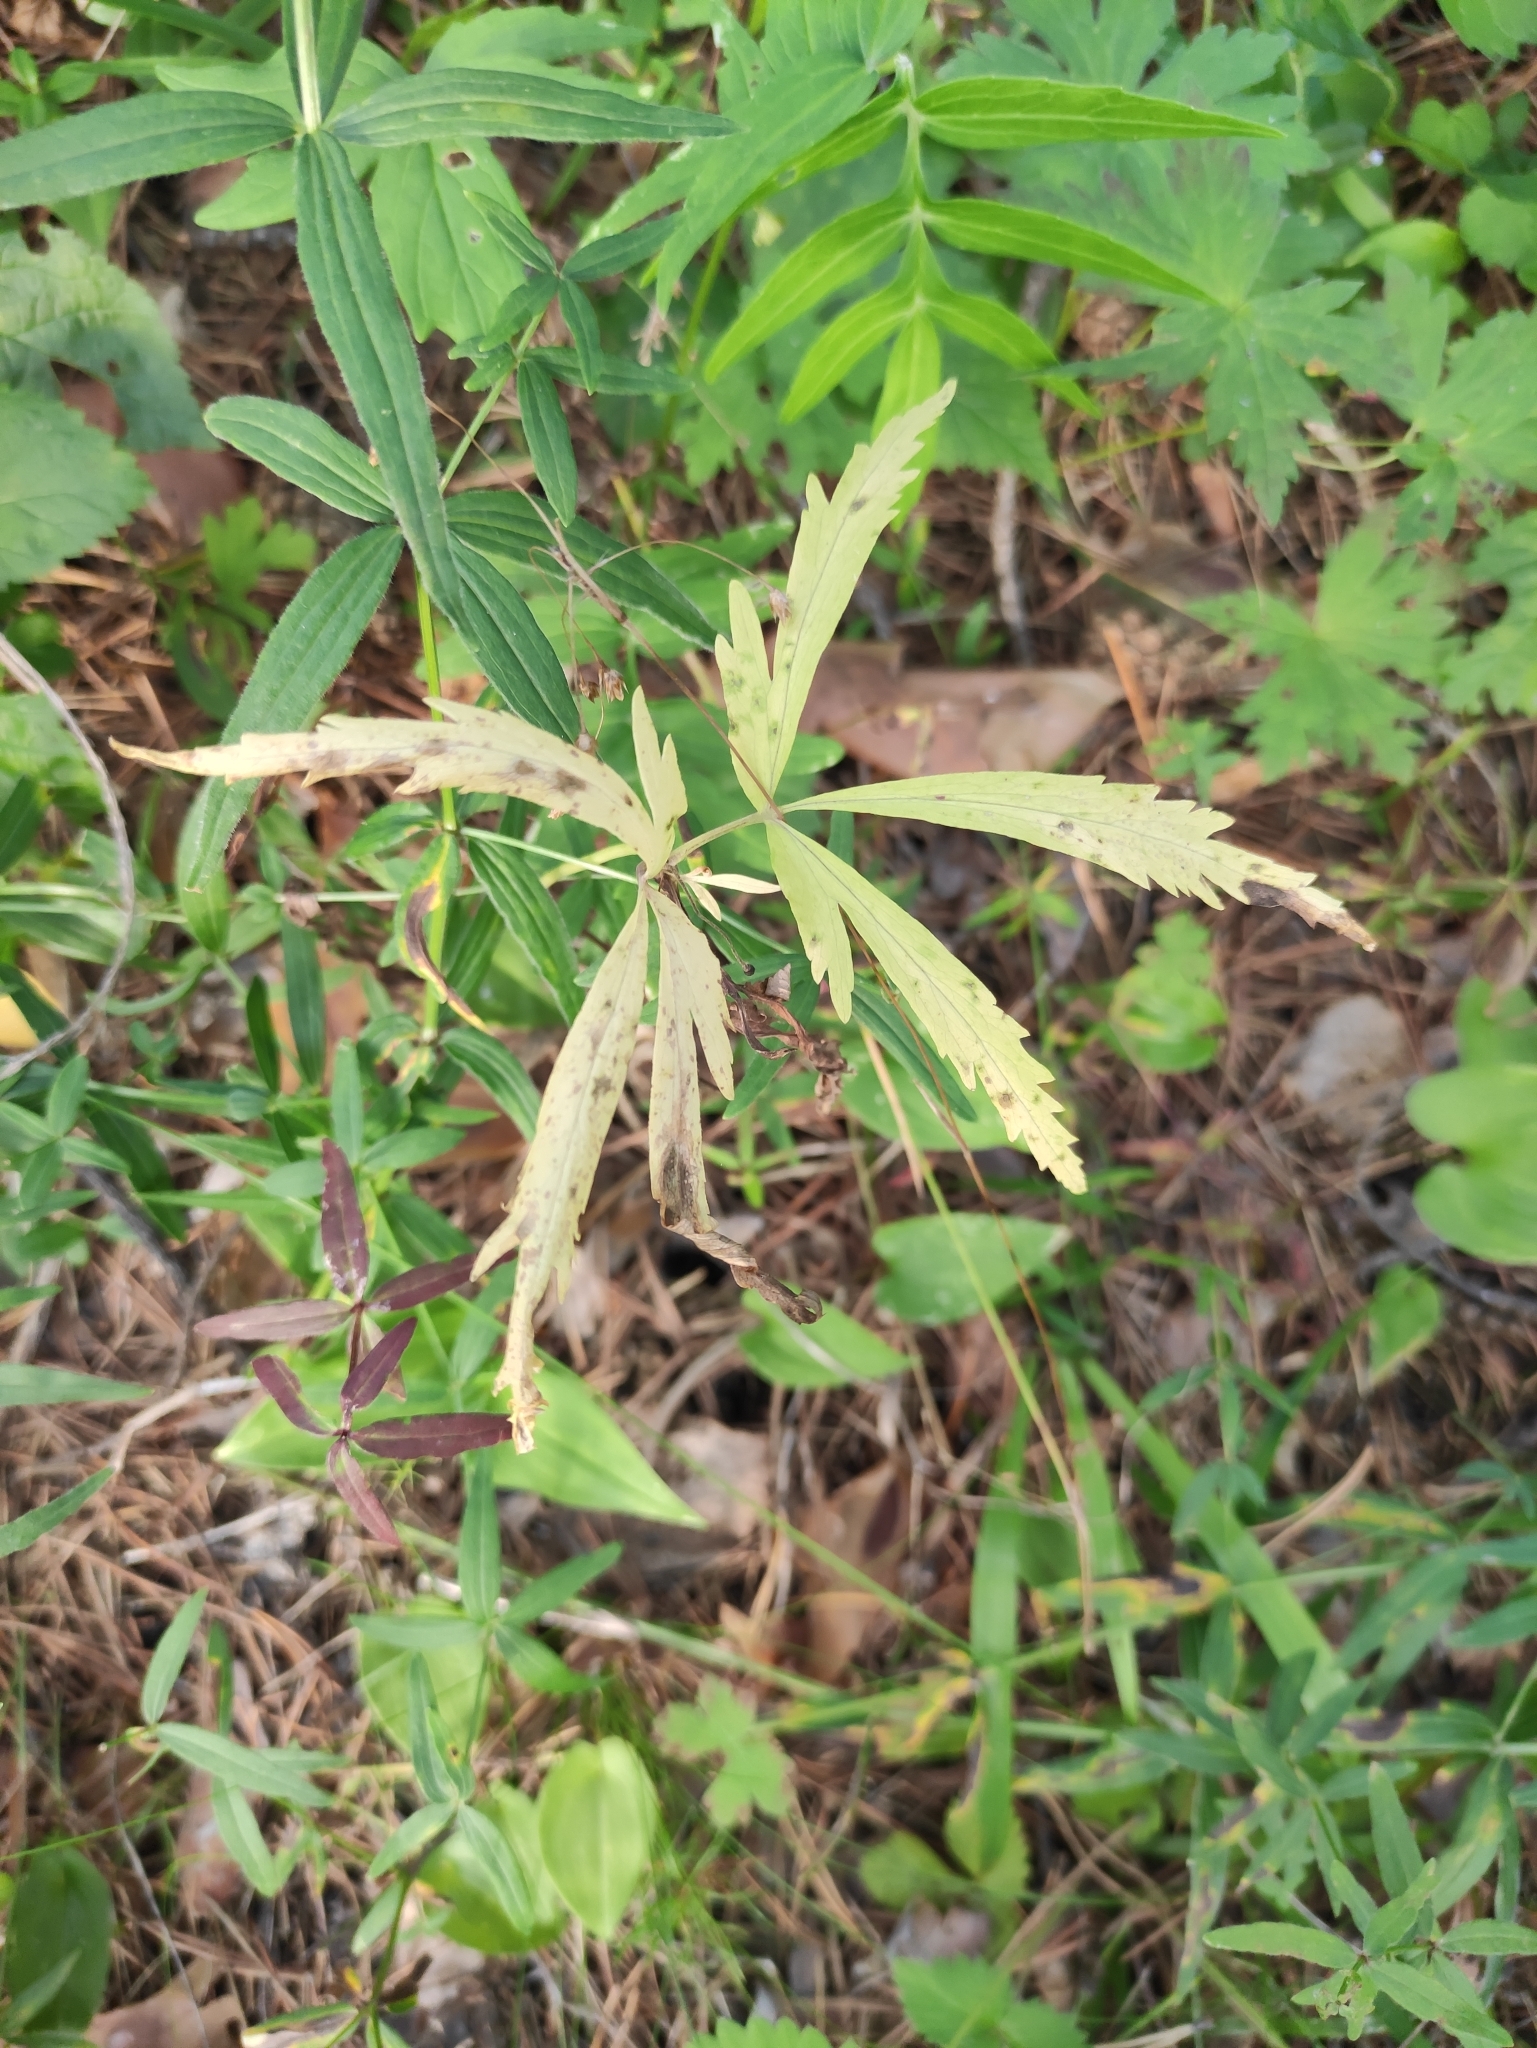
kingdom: Plantae
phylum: Tracheophyta
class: Magnoliopsida
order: Ranunculales
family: Ranunculaceae
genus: Anemone
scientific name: Anemone reflexa
